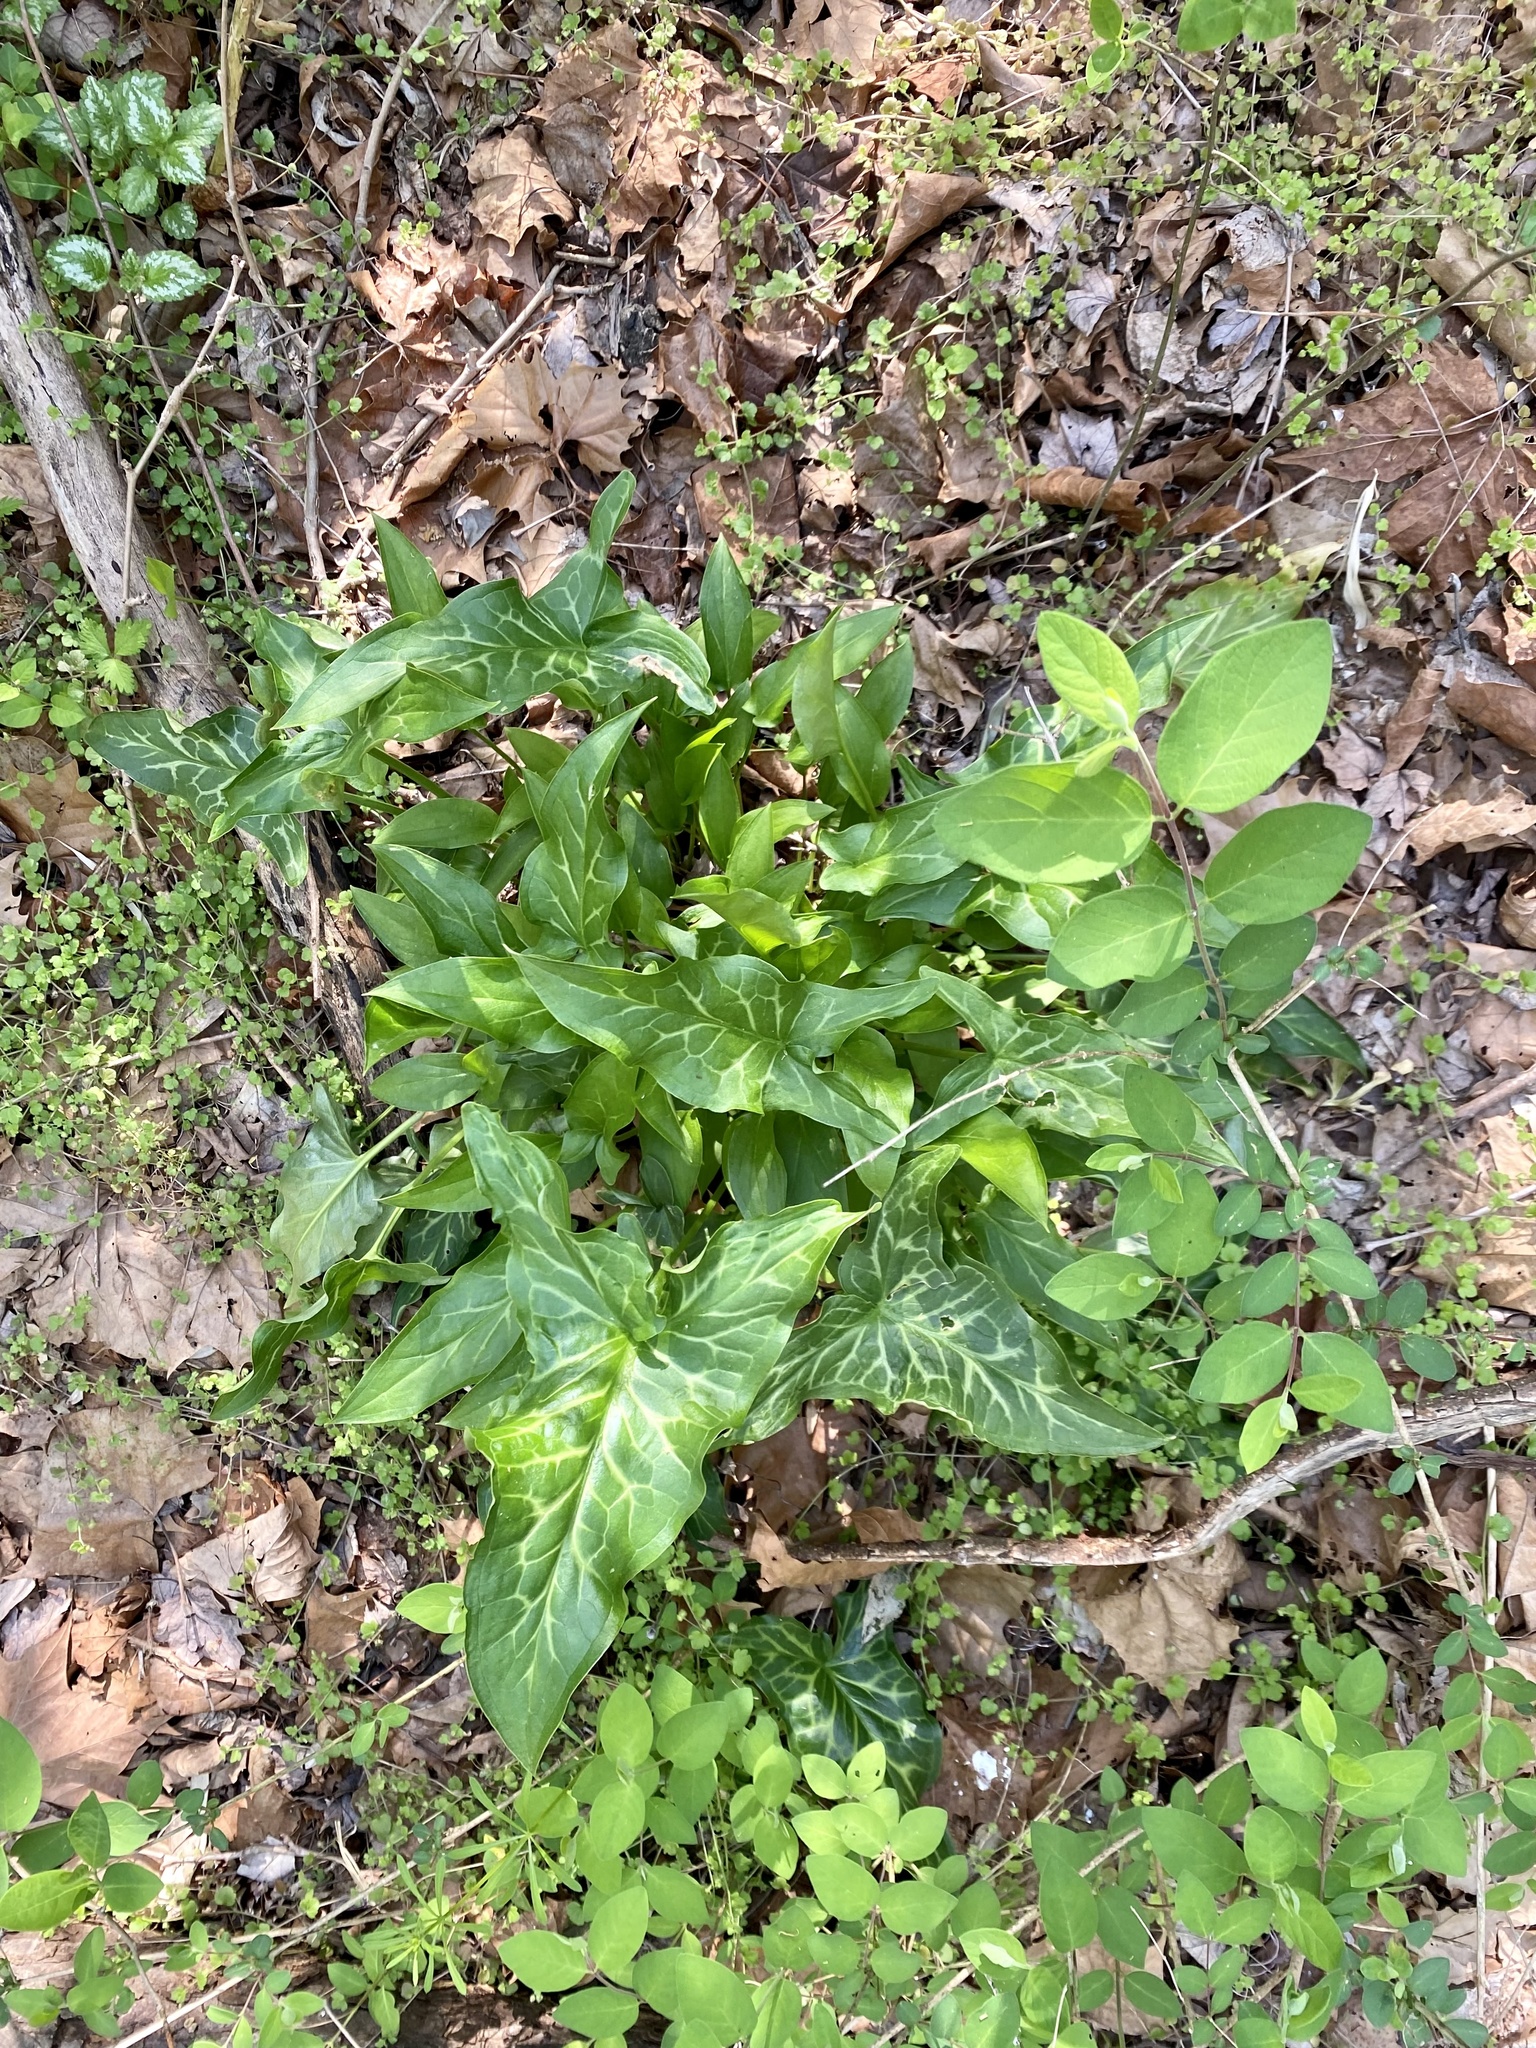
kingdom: Plantae
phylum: Tracheophyta
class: Liliopsida
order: Alismatales
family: Araceae
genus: Arum
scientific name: Arum italicum
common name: Italian lords-and-ladies
